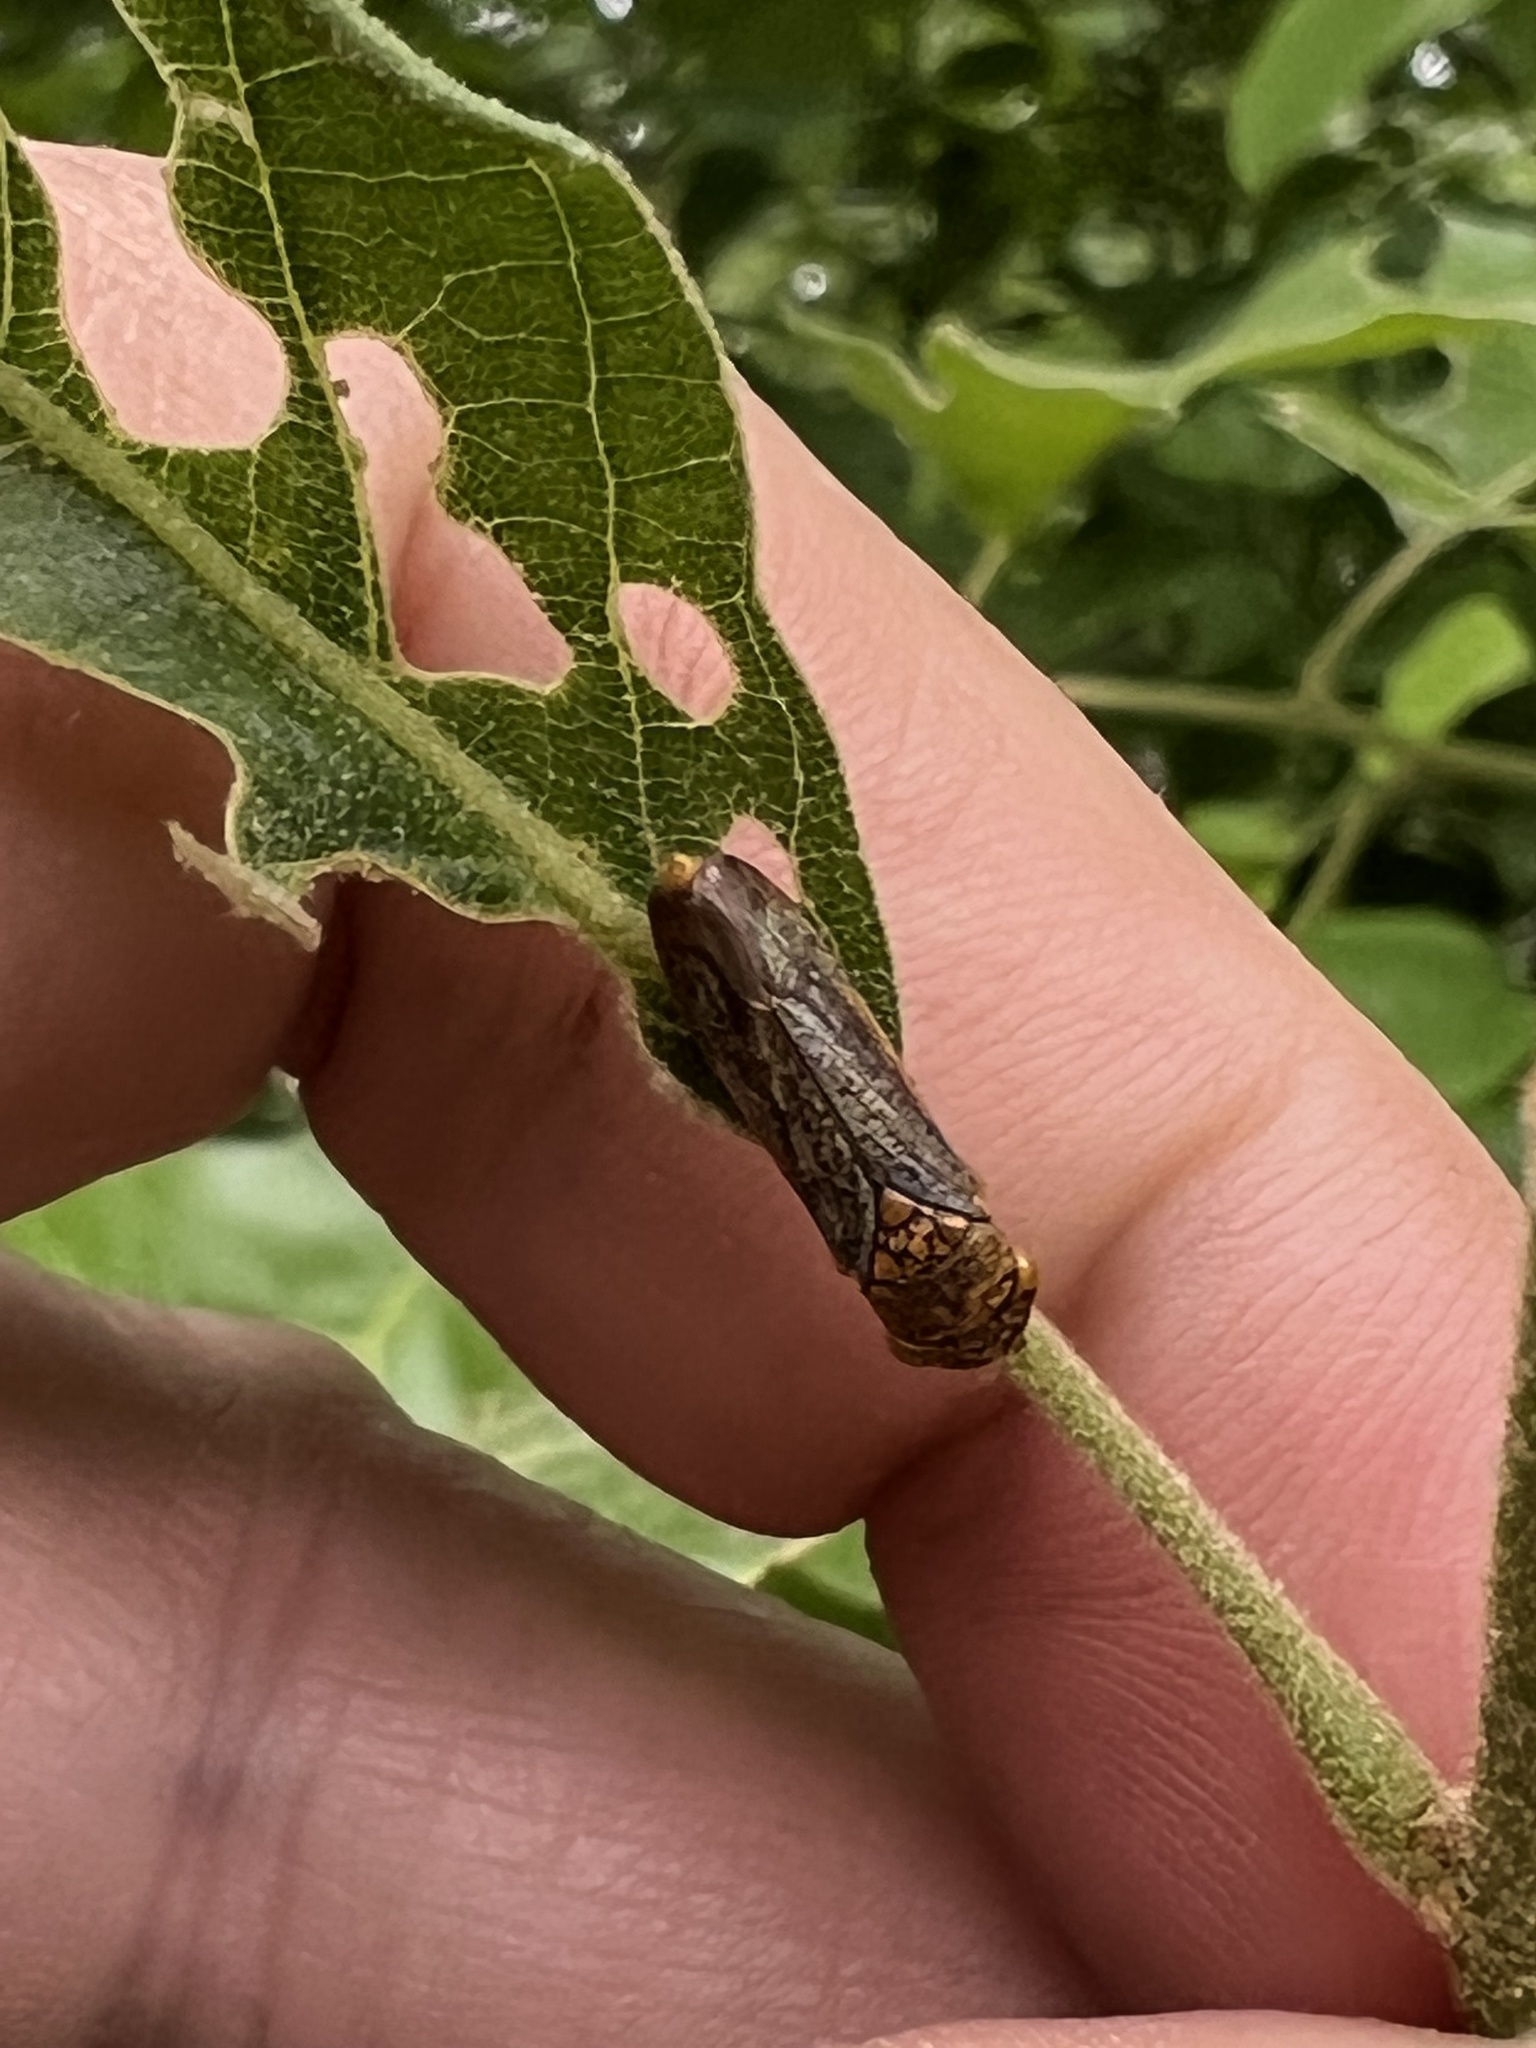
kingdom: Animalia
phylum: Arthropoda
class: Insecta
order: Hemiptera
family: Cicadellidae
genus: Oncometopia
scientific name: Oncometopia orbona
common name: Broad-headed sharpshooter
